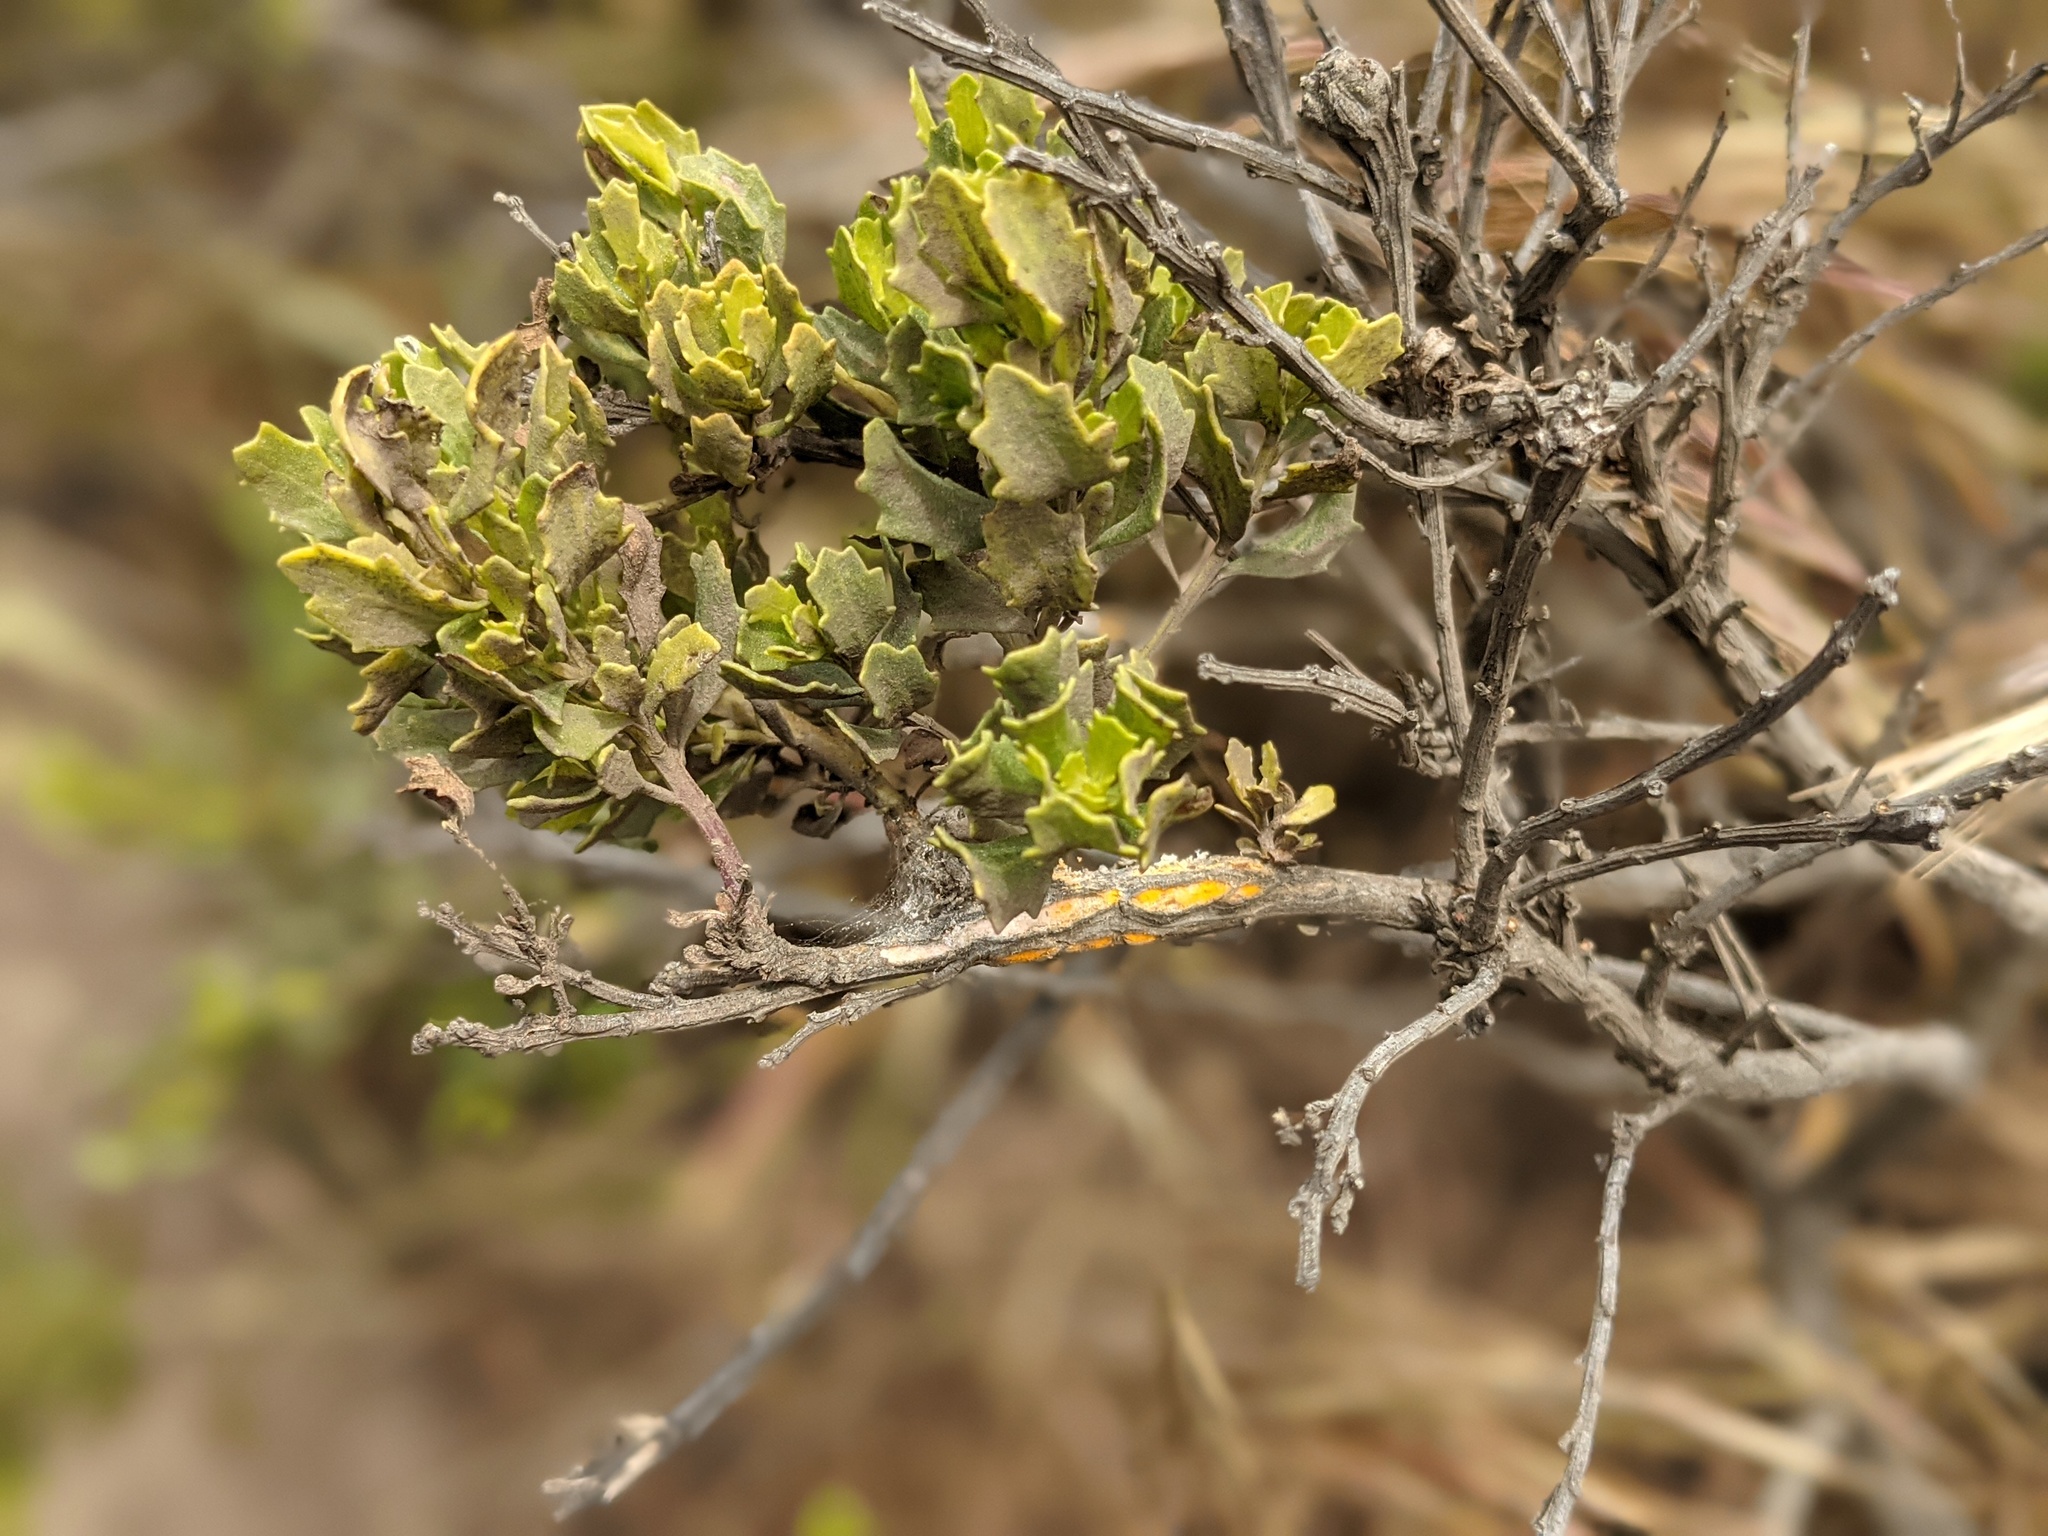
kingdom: Plantae
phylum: Tracheophyta
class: Magnoliopsida
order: Asterales
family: Asteraceae
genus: Baccharis
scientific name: Baccharis pilularis
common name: Coyotebrush
